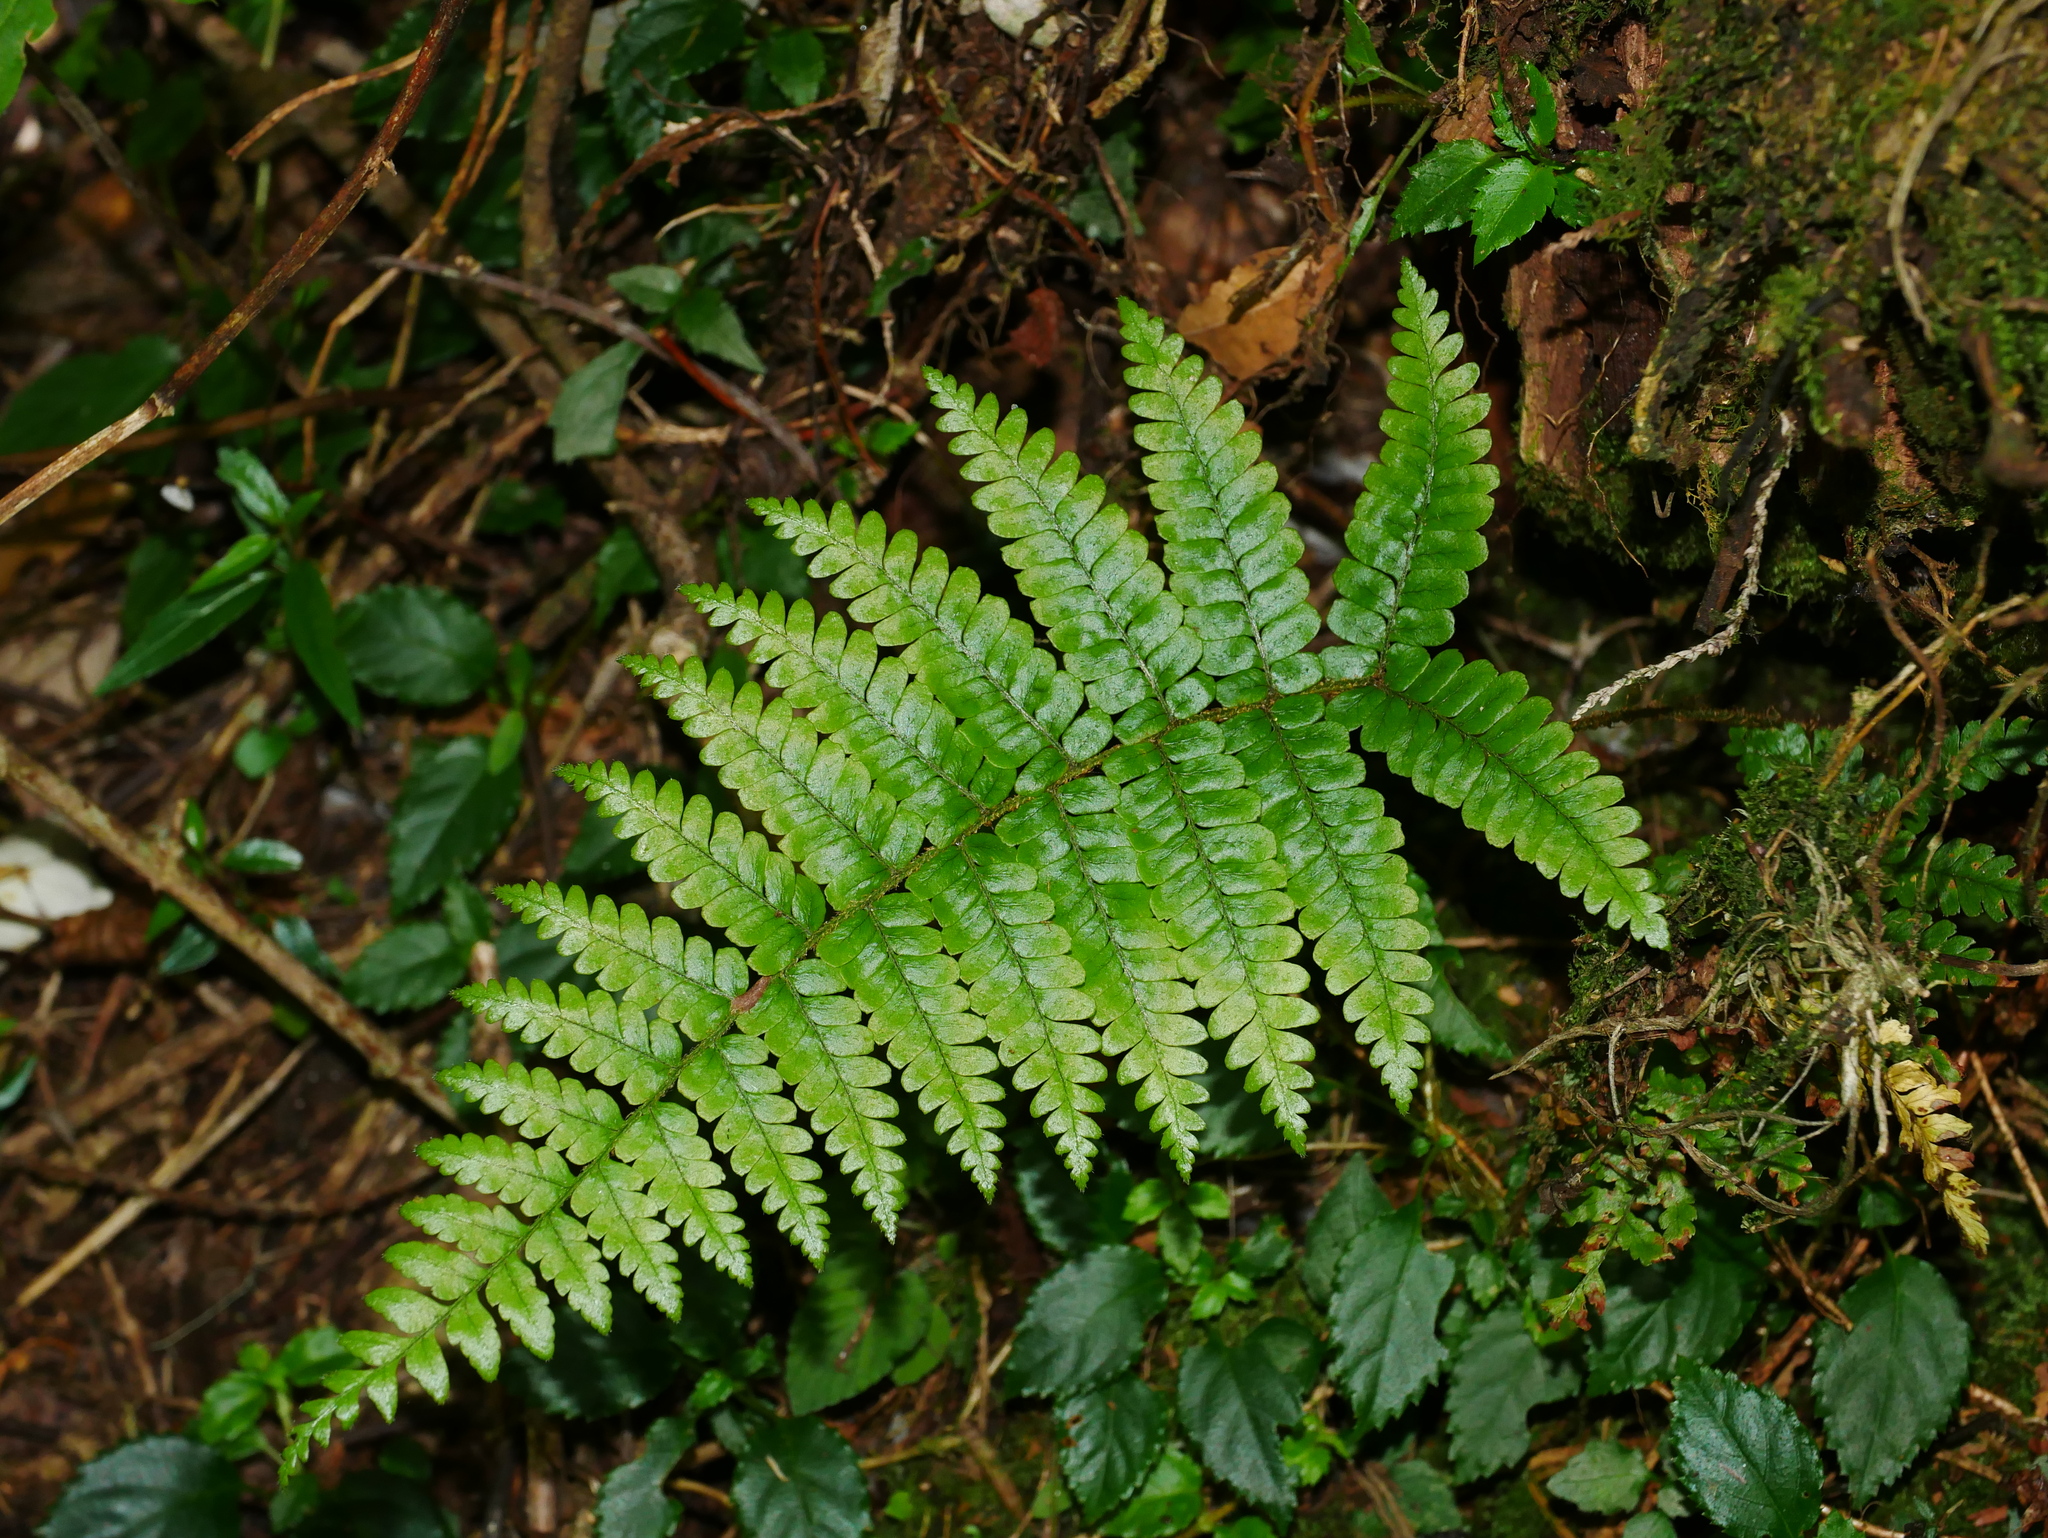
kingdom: Plantae
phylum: Tracheophyta
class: Polypodiopsida
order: Polypodiales
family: Dryopteridaceae
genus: Dryopteris
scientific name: Dryopteris apiciflora
